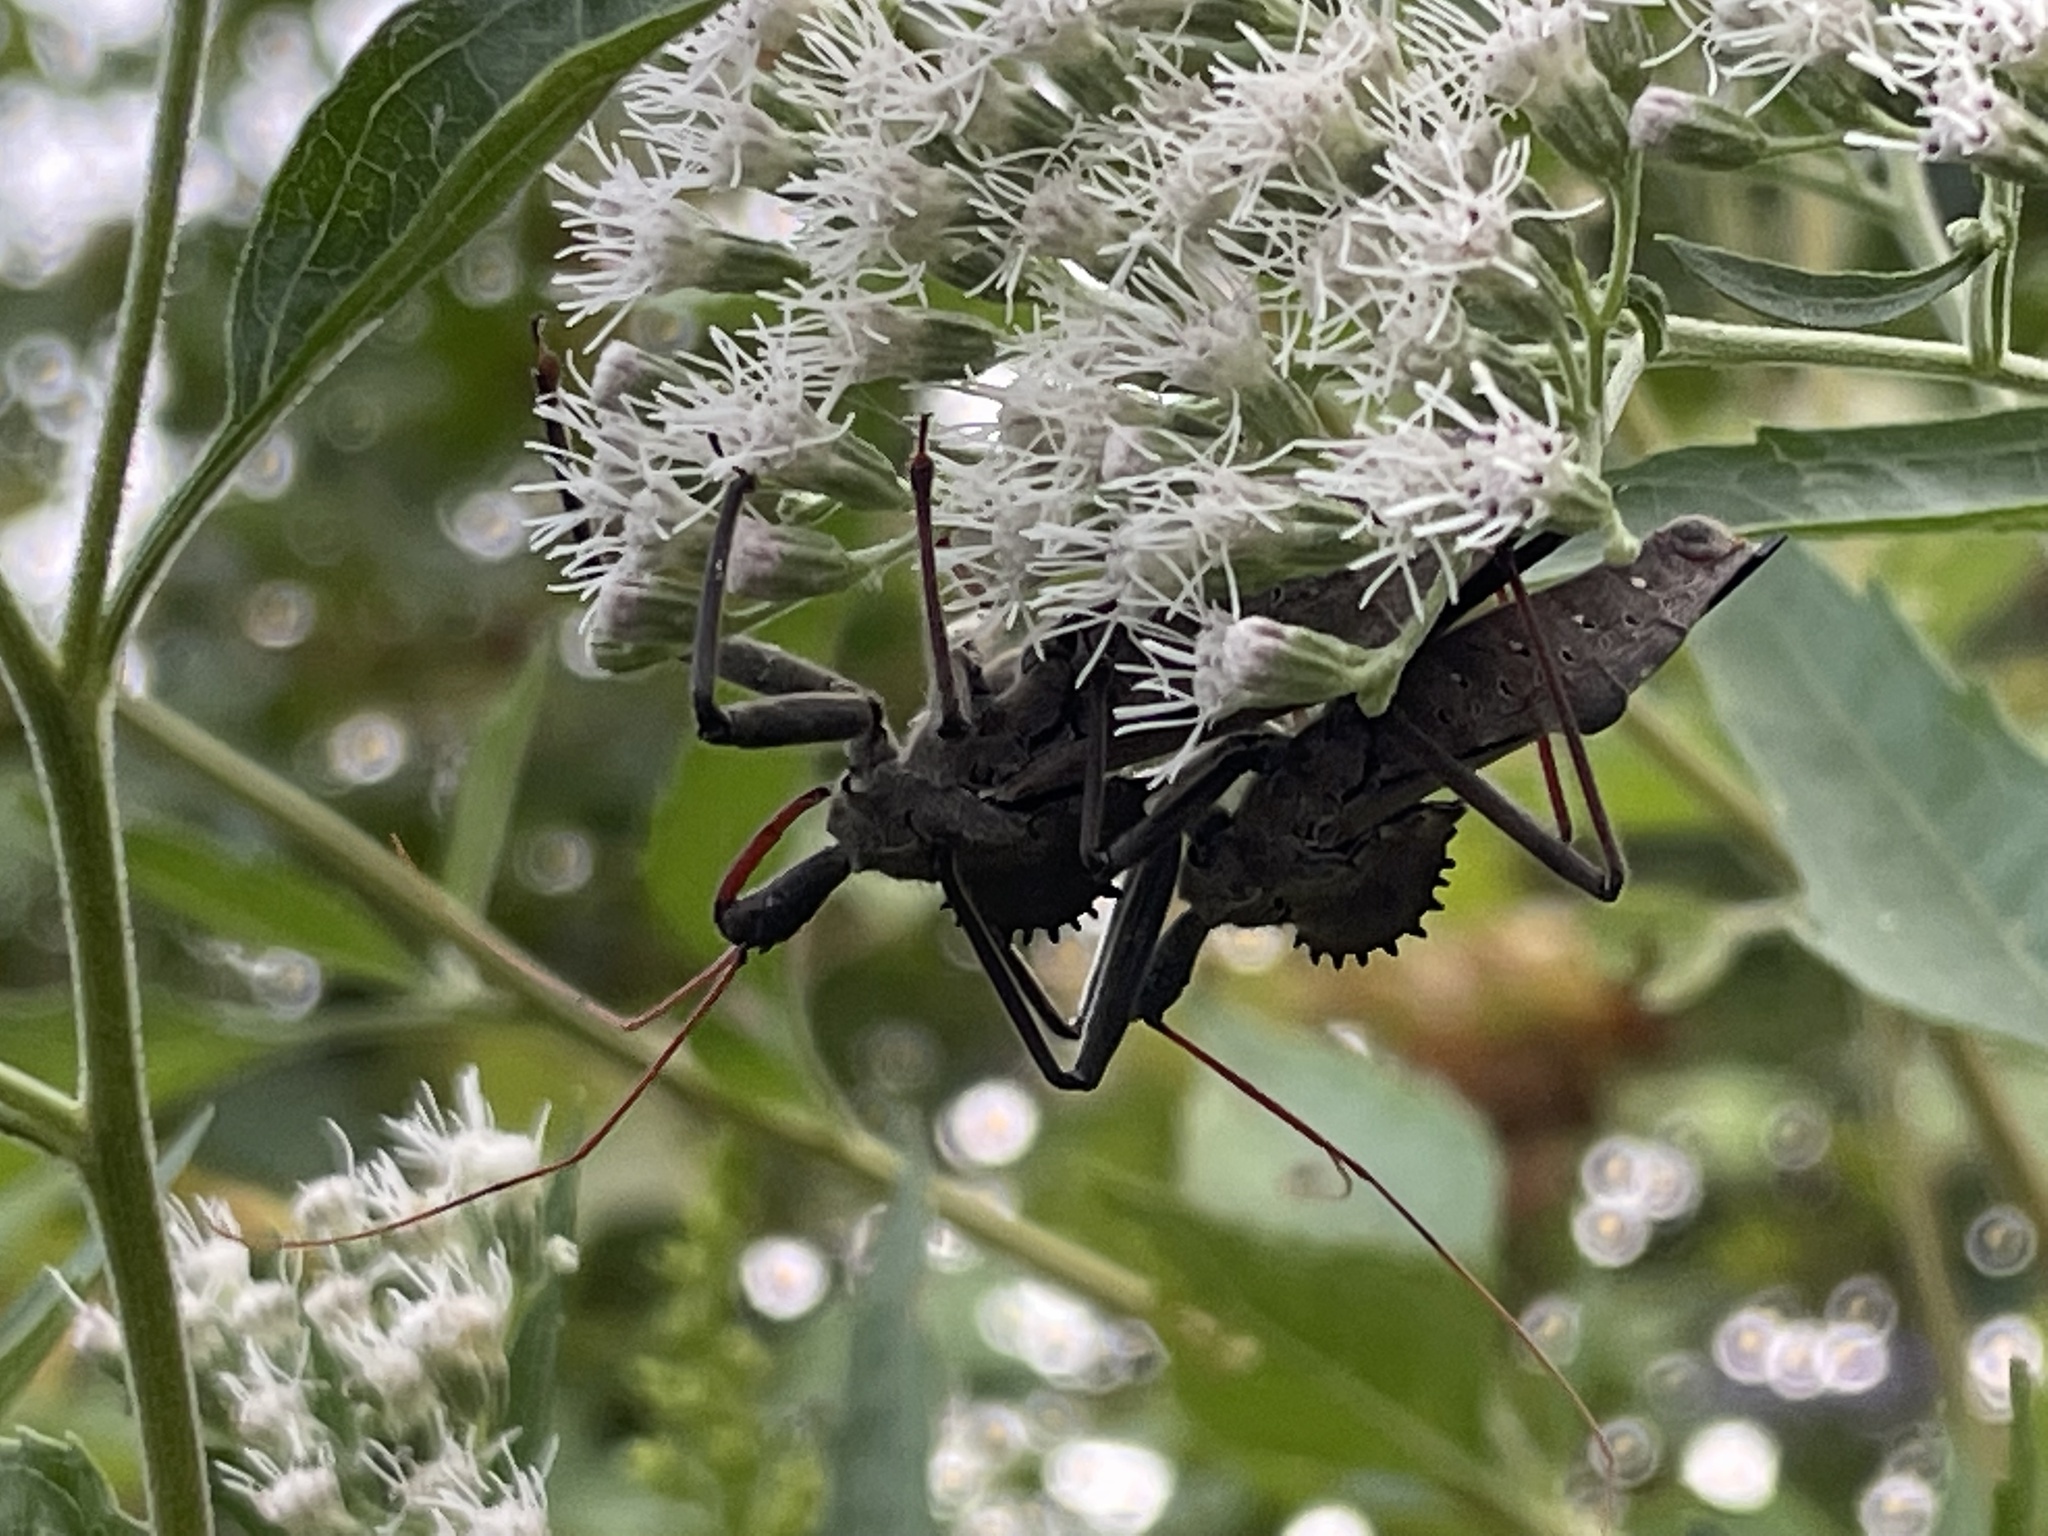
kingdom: Animalia
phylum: Arthropoda
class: Insecta
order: Hemiptera
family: Reduviidae
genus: Arilus
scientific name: Arilus cristatus
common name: North american wheel bug
